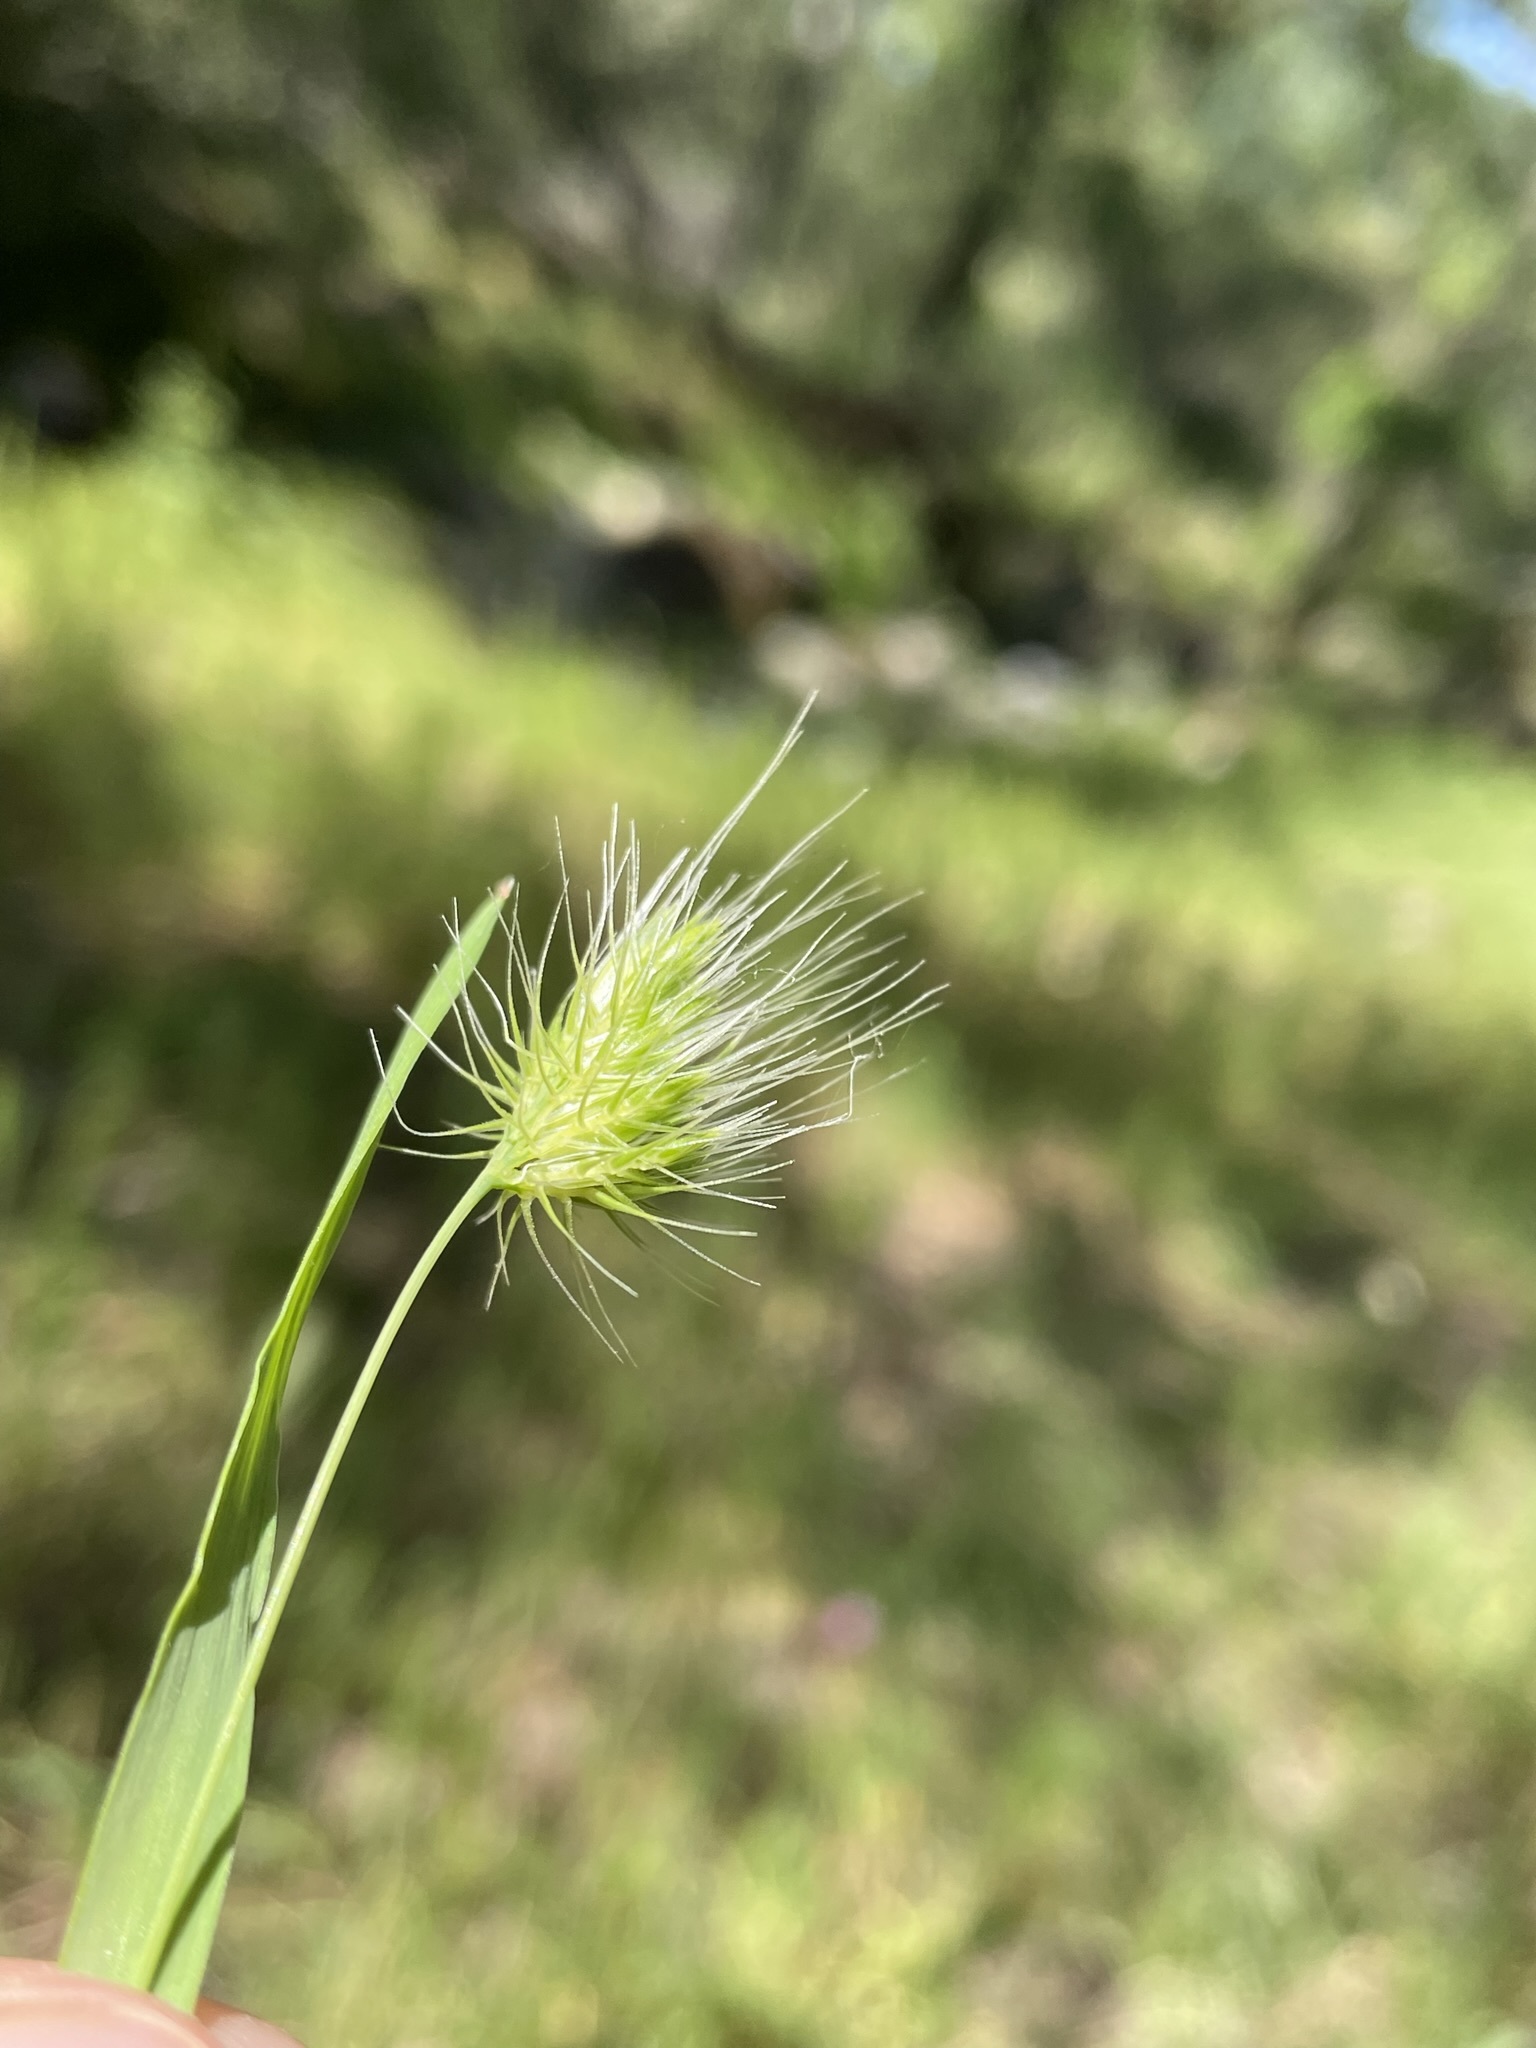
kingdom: Plantae
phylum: Tracheophyta
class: Liliopsida
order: Poales
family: Poaceae
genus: Cynosurus
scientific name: Cynosurus echinatus
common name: Rough dog's-tail
